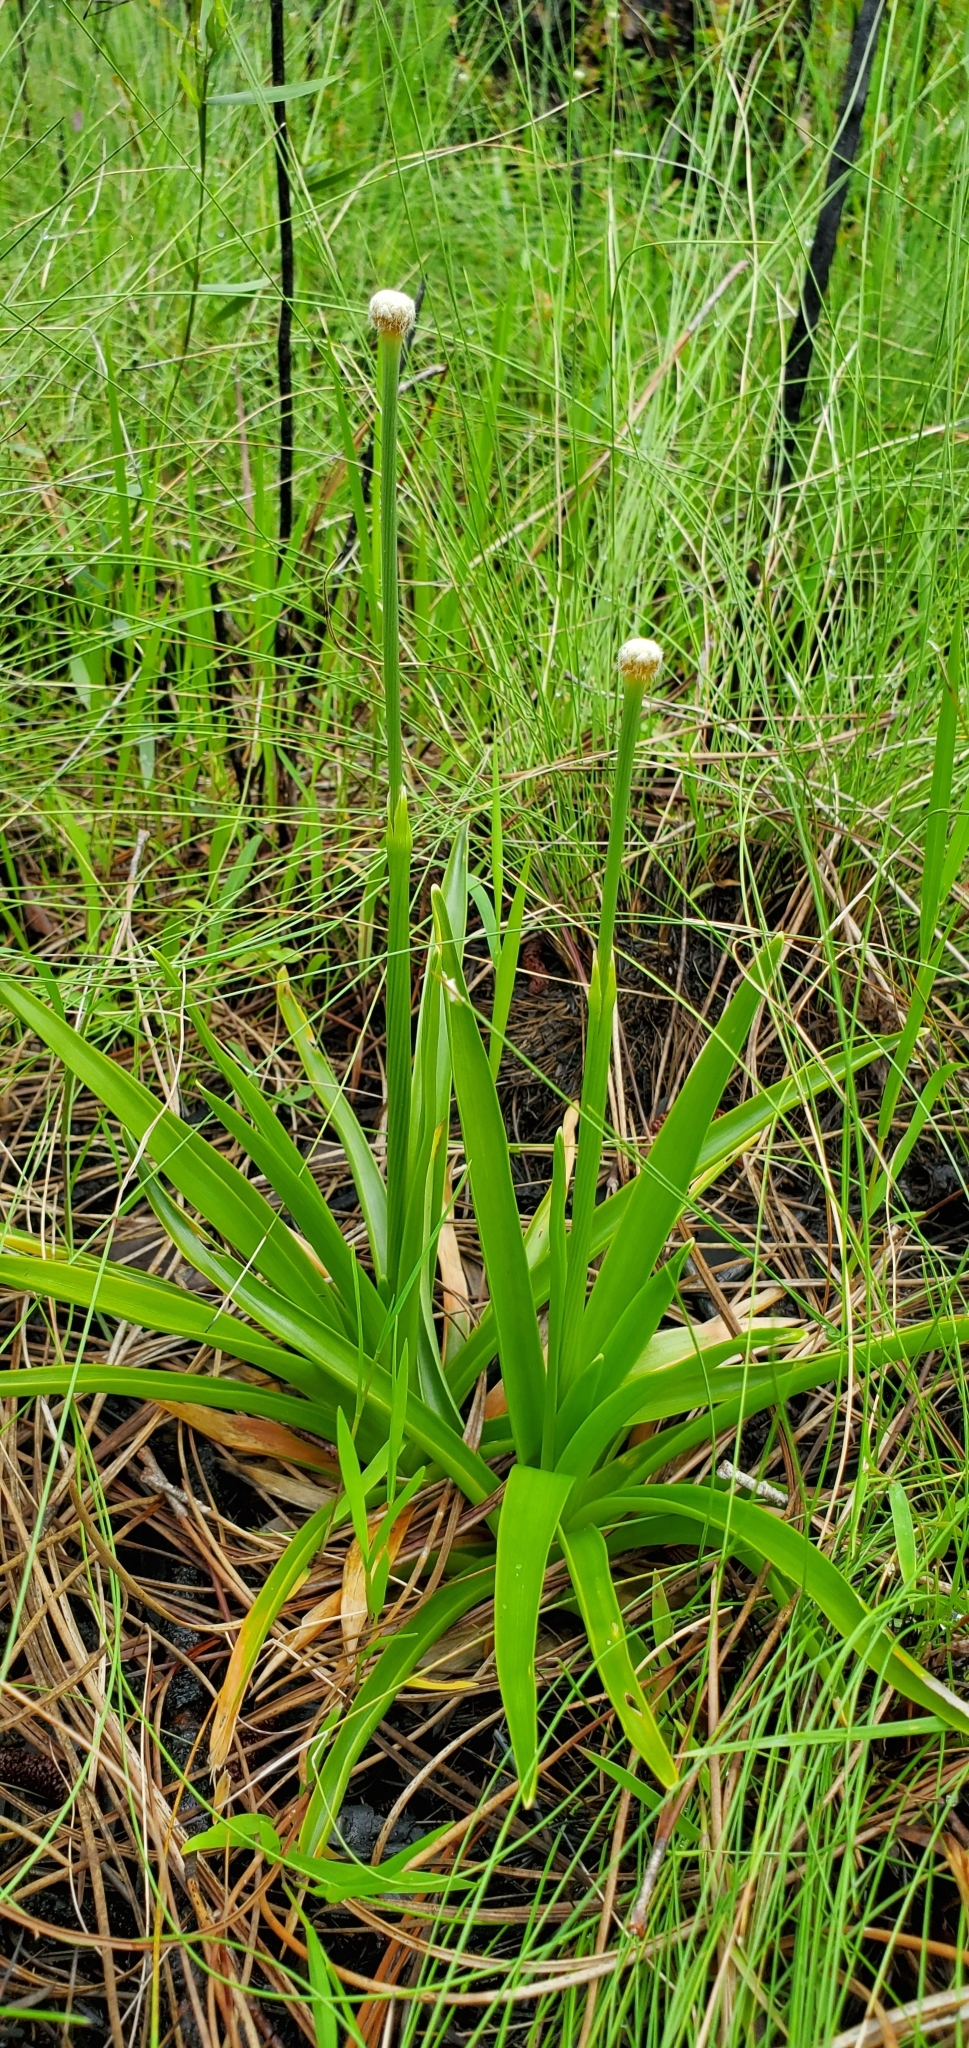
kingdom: Plantae
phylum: Tracheophyta
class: Liliopsida
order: Poales
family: Eriocaulaceae
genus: Eriocaulon
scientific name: Eriocaulon decangulare
